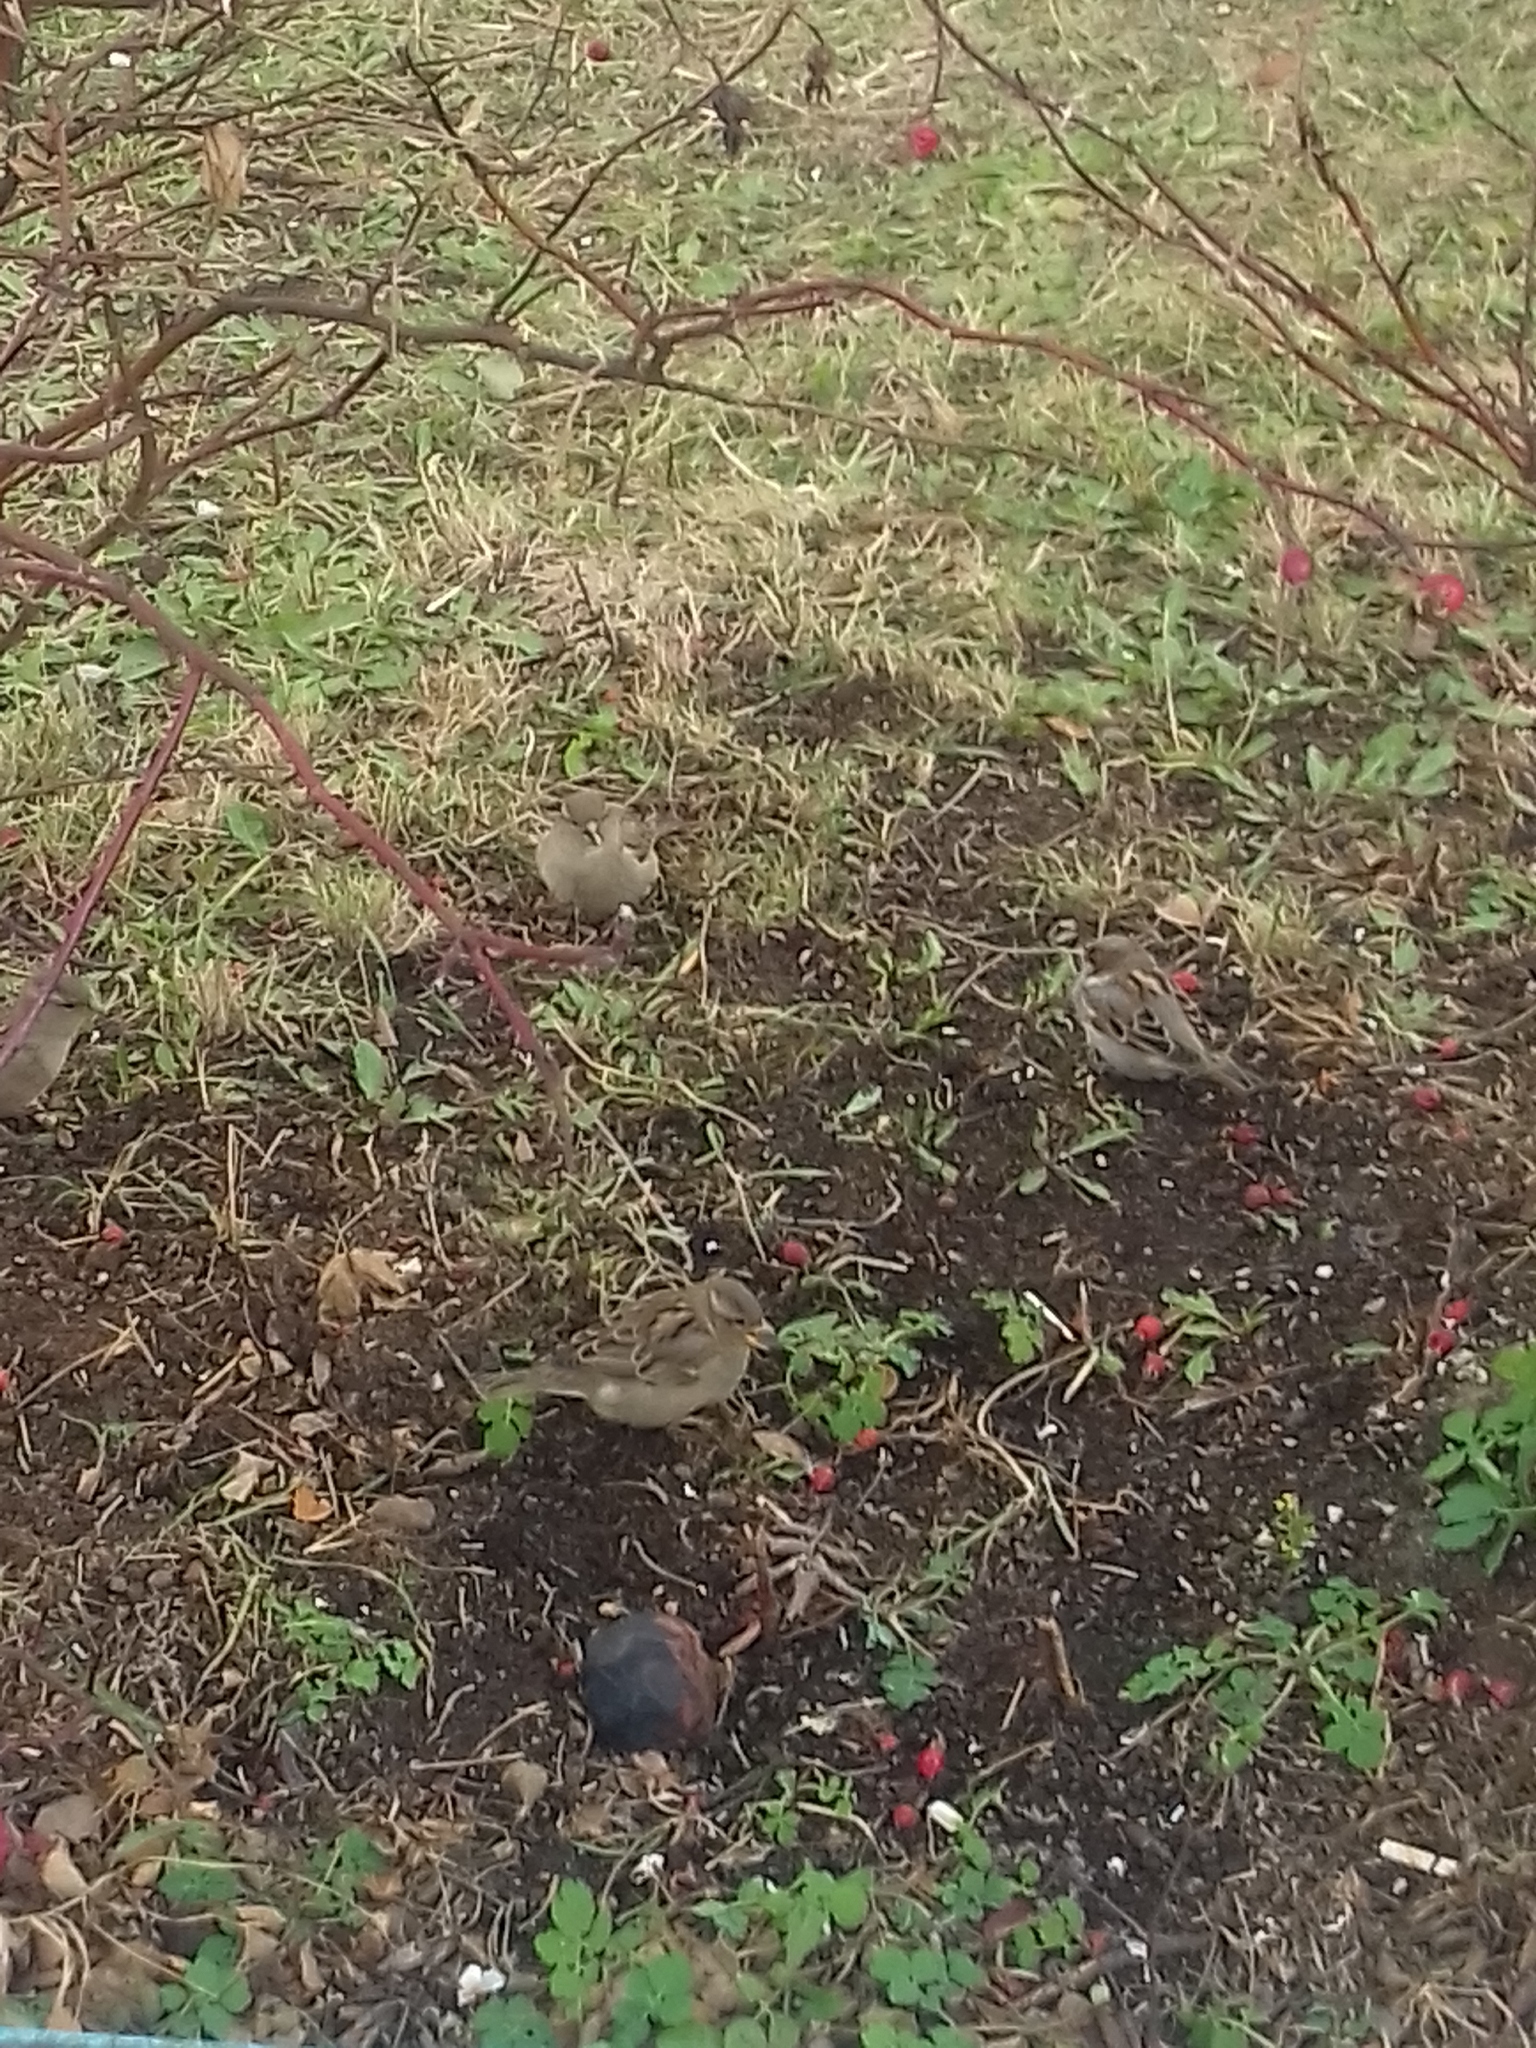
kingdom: Animalia
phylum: Chordata
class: Aves
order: Passeriformes
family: Passeridae
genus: Passer
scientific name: Passer domesticus
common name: House sparrow
